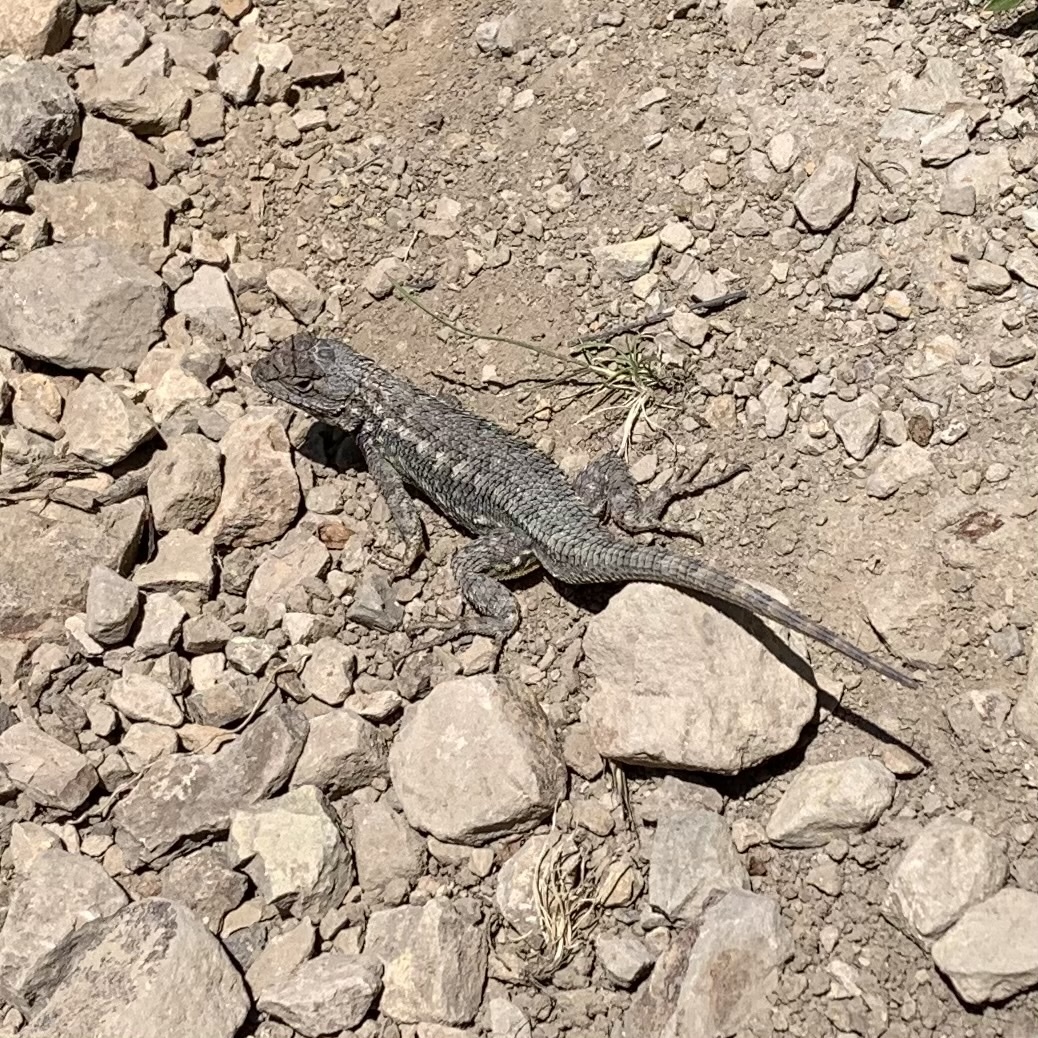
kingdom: Animalia
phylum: Chordata
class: Squamata
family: Phrynosomatidae
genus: Sceloporus
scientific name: Sceloporus occidentalis
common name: Western fence lizard
